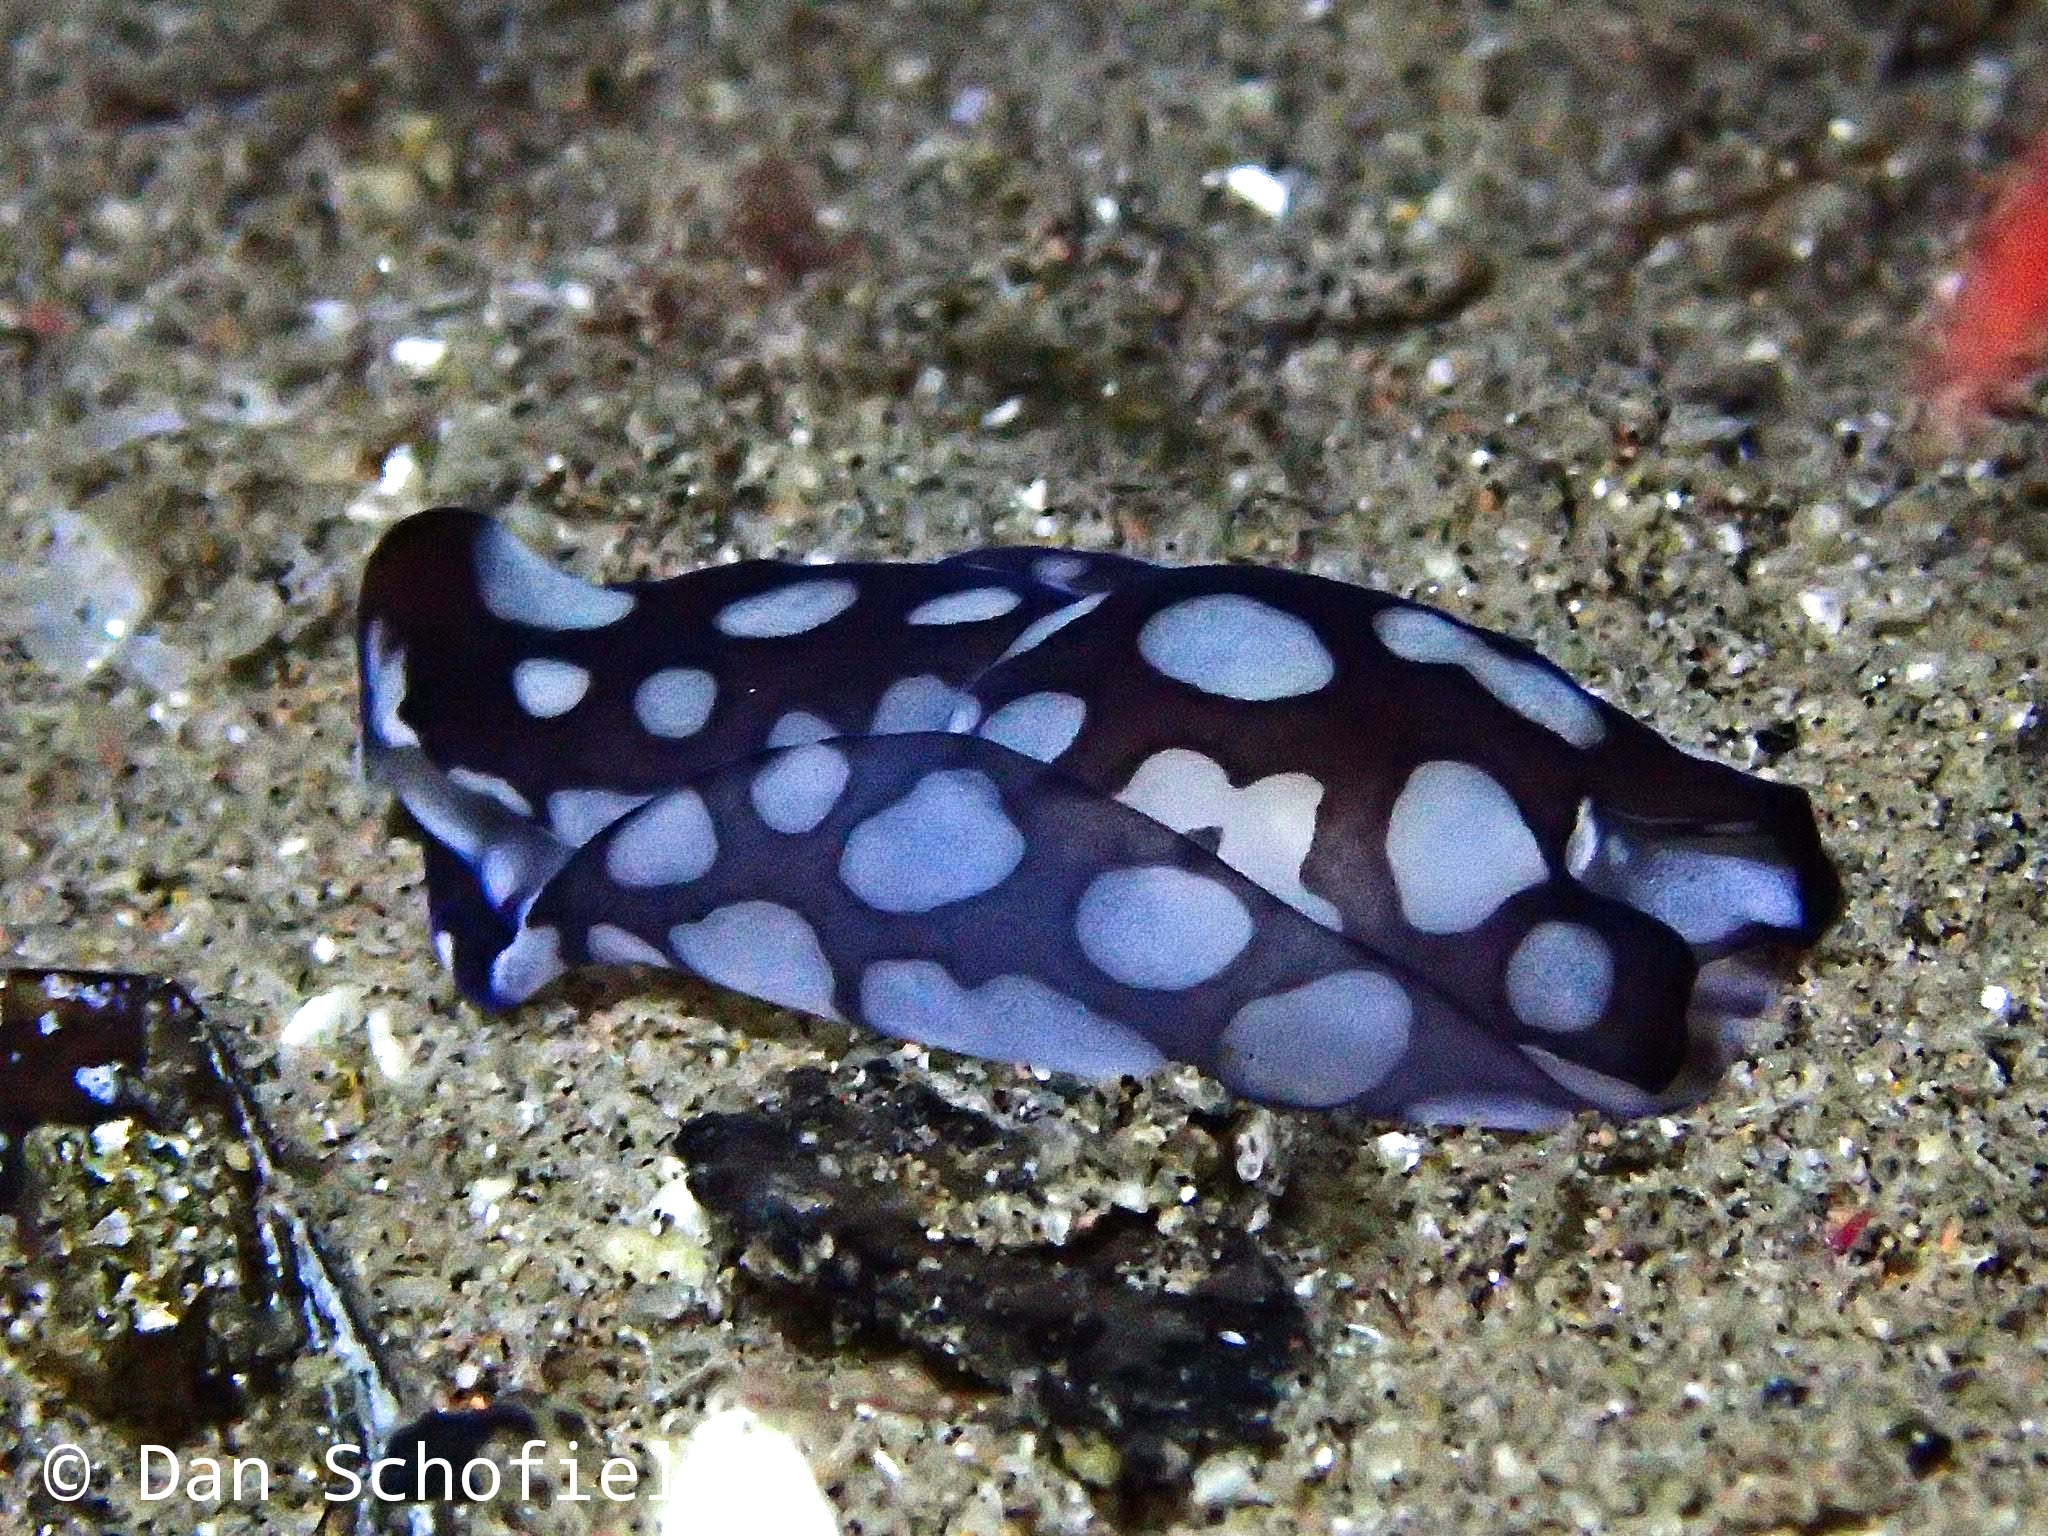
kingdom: Animalia
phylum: Mollusca
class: Gastropoda
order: Cephalaspidea
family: Aglajidae
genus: Tubulophilinopsis
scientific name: Tubulophilinopsis pilsbryi
